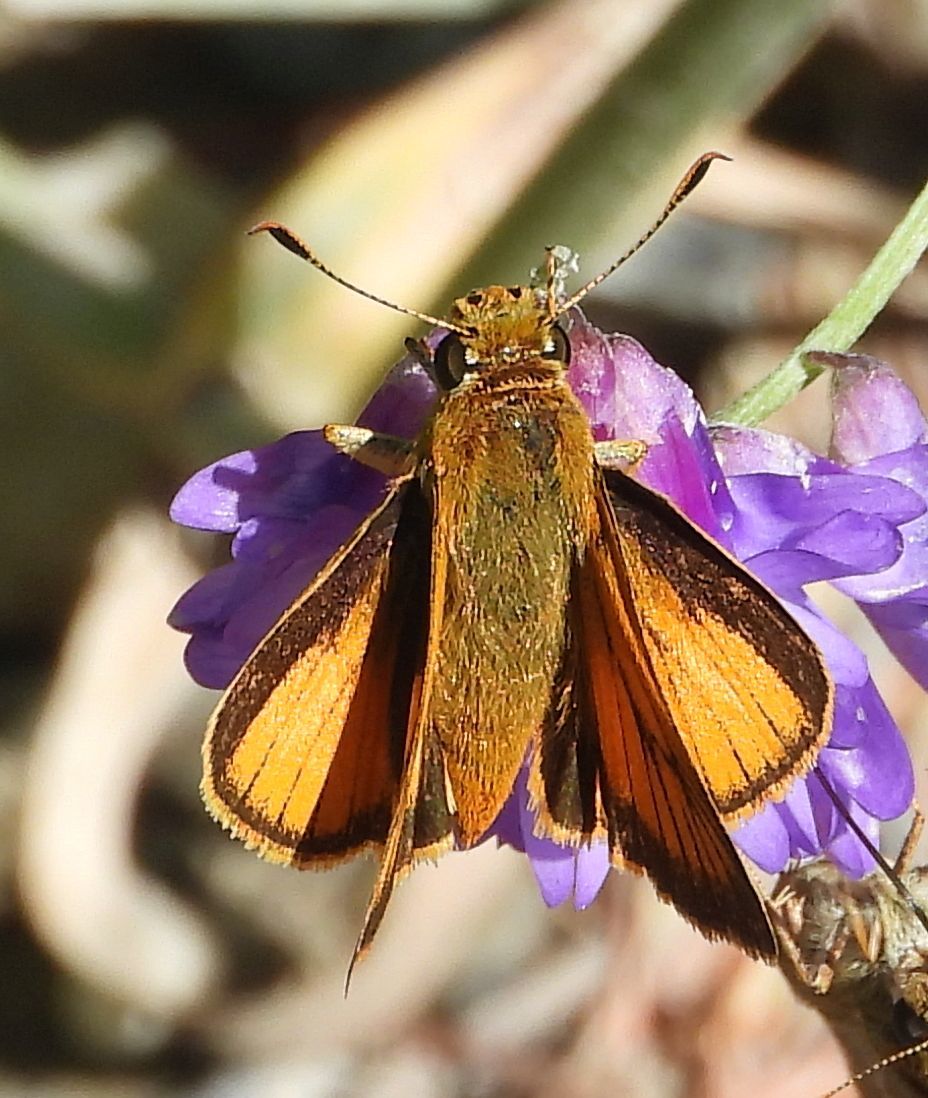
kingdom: Animalia
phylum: Arthropoda
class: Insecta
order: Lepidoptera
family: Hesperiidae
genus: Atrytone
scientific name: Atrytone delaware
